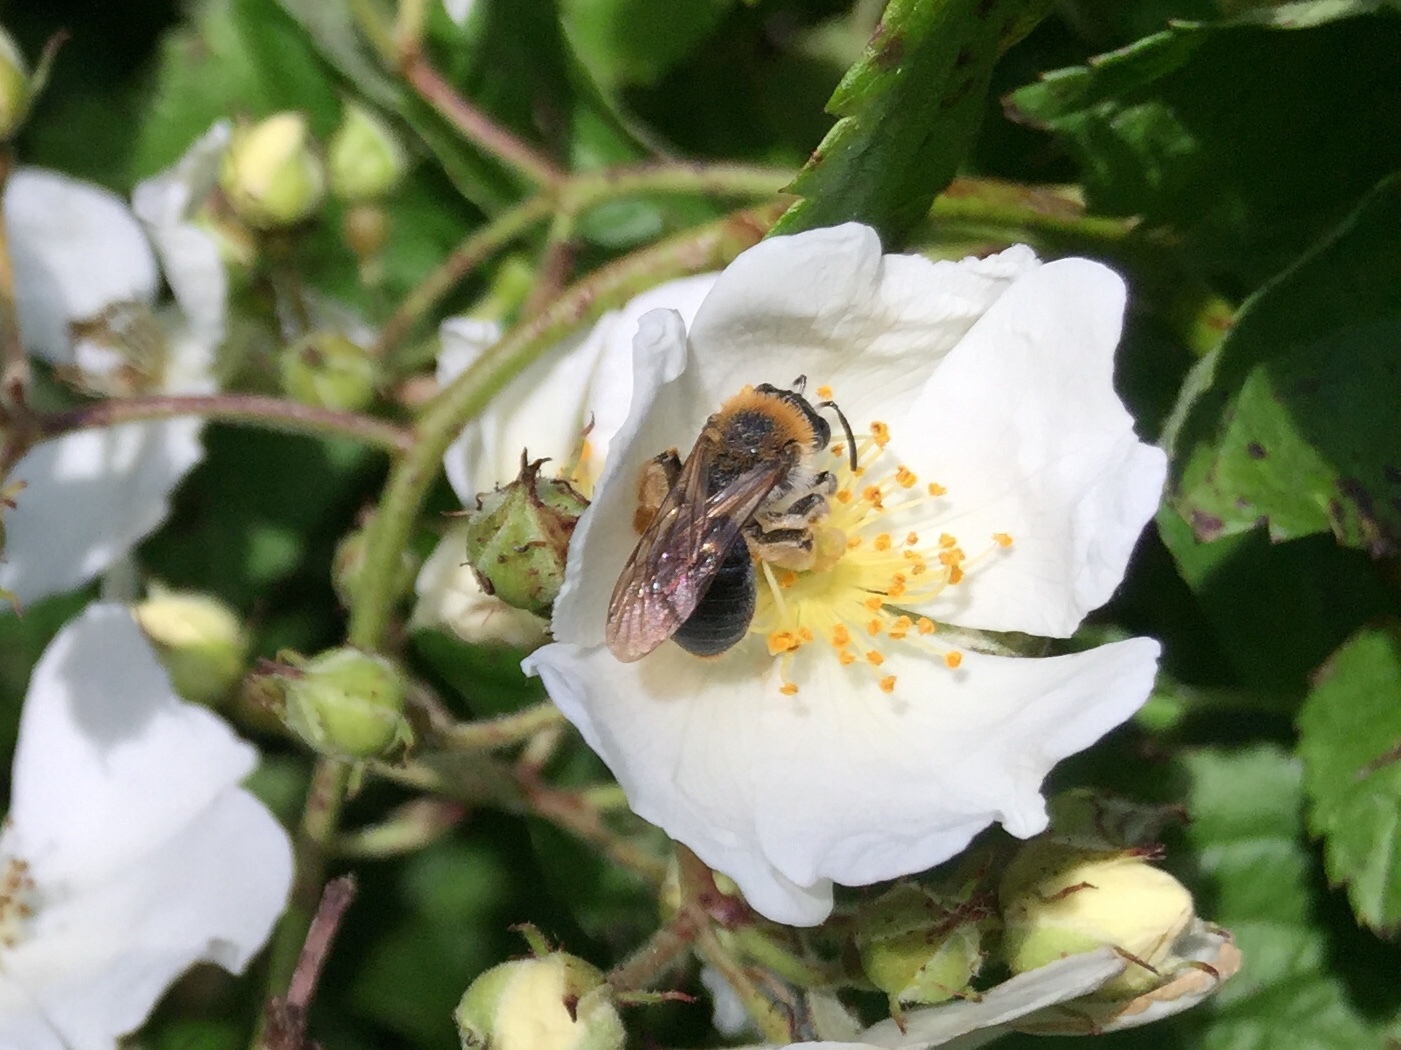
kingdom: Animalia
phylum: Arthropoda
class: Insecta
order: Hymenoptera
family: Andrenidae
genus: Andrena
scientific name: Andrena haemorrhoa
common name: Early mining bee
